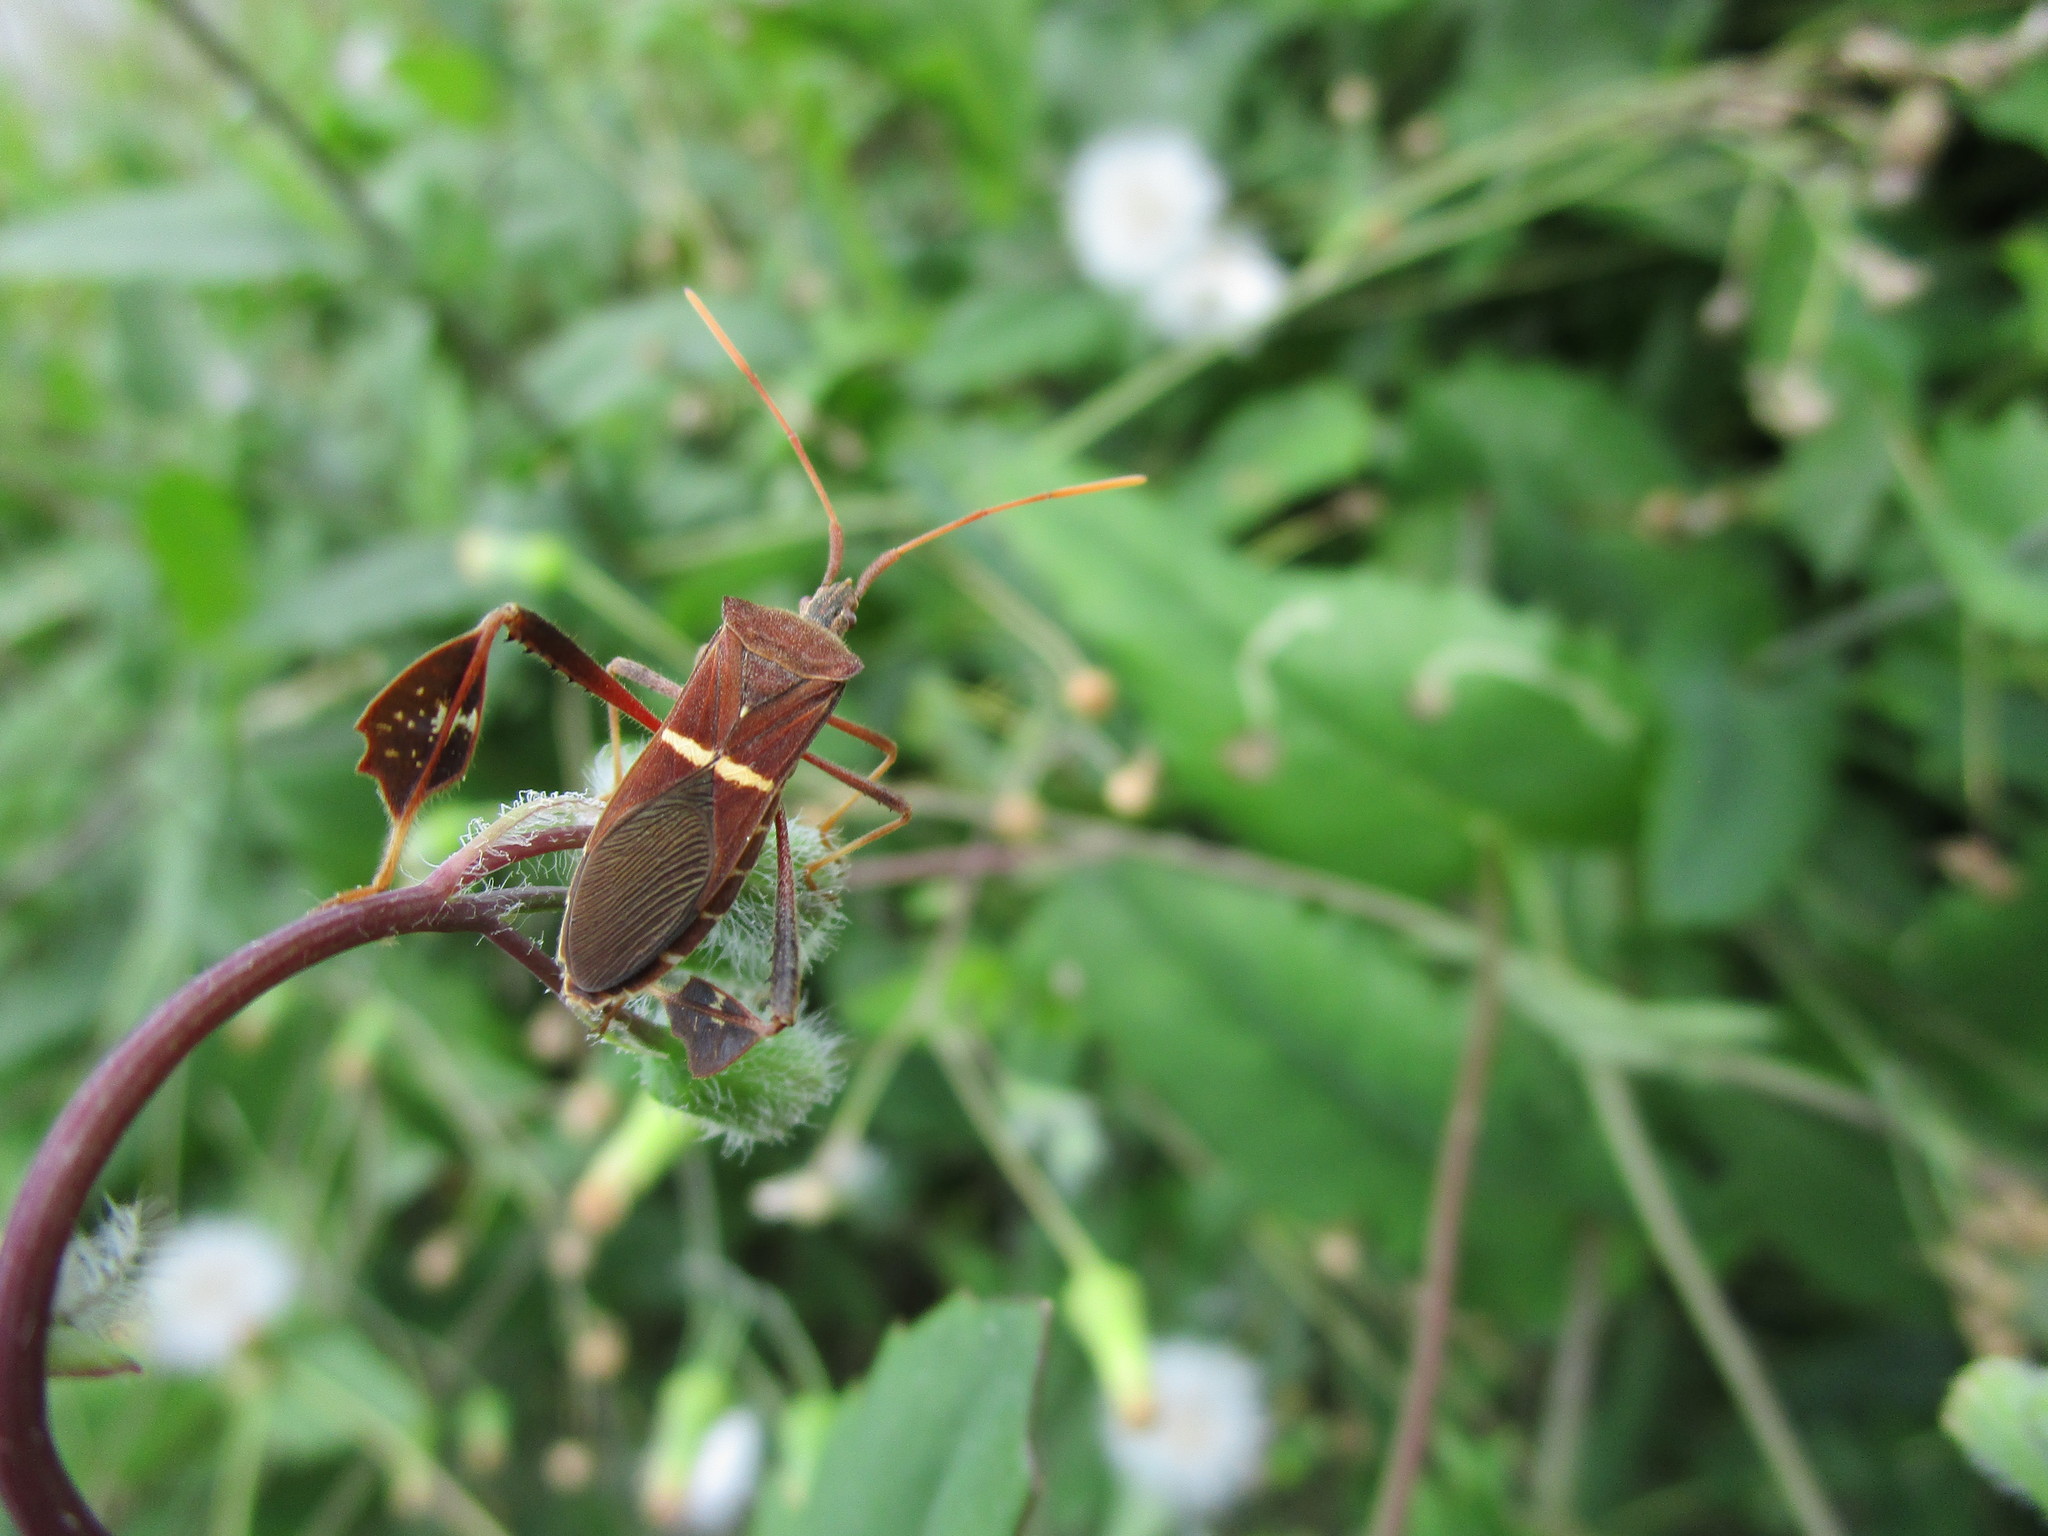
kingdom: Animalia
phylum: Arthropoda
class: Insecta
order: Hemiptera
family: Coreidae
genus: Leptoglossus
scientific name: Leptoglossus phyllopus
